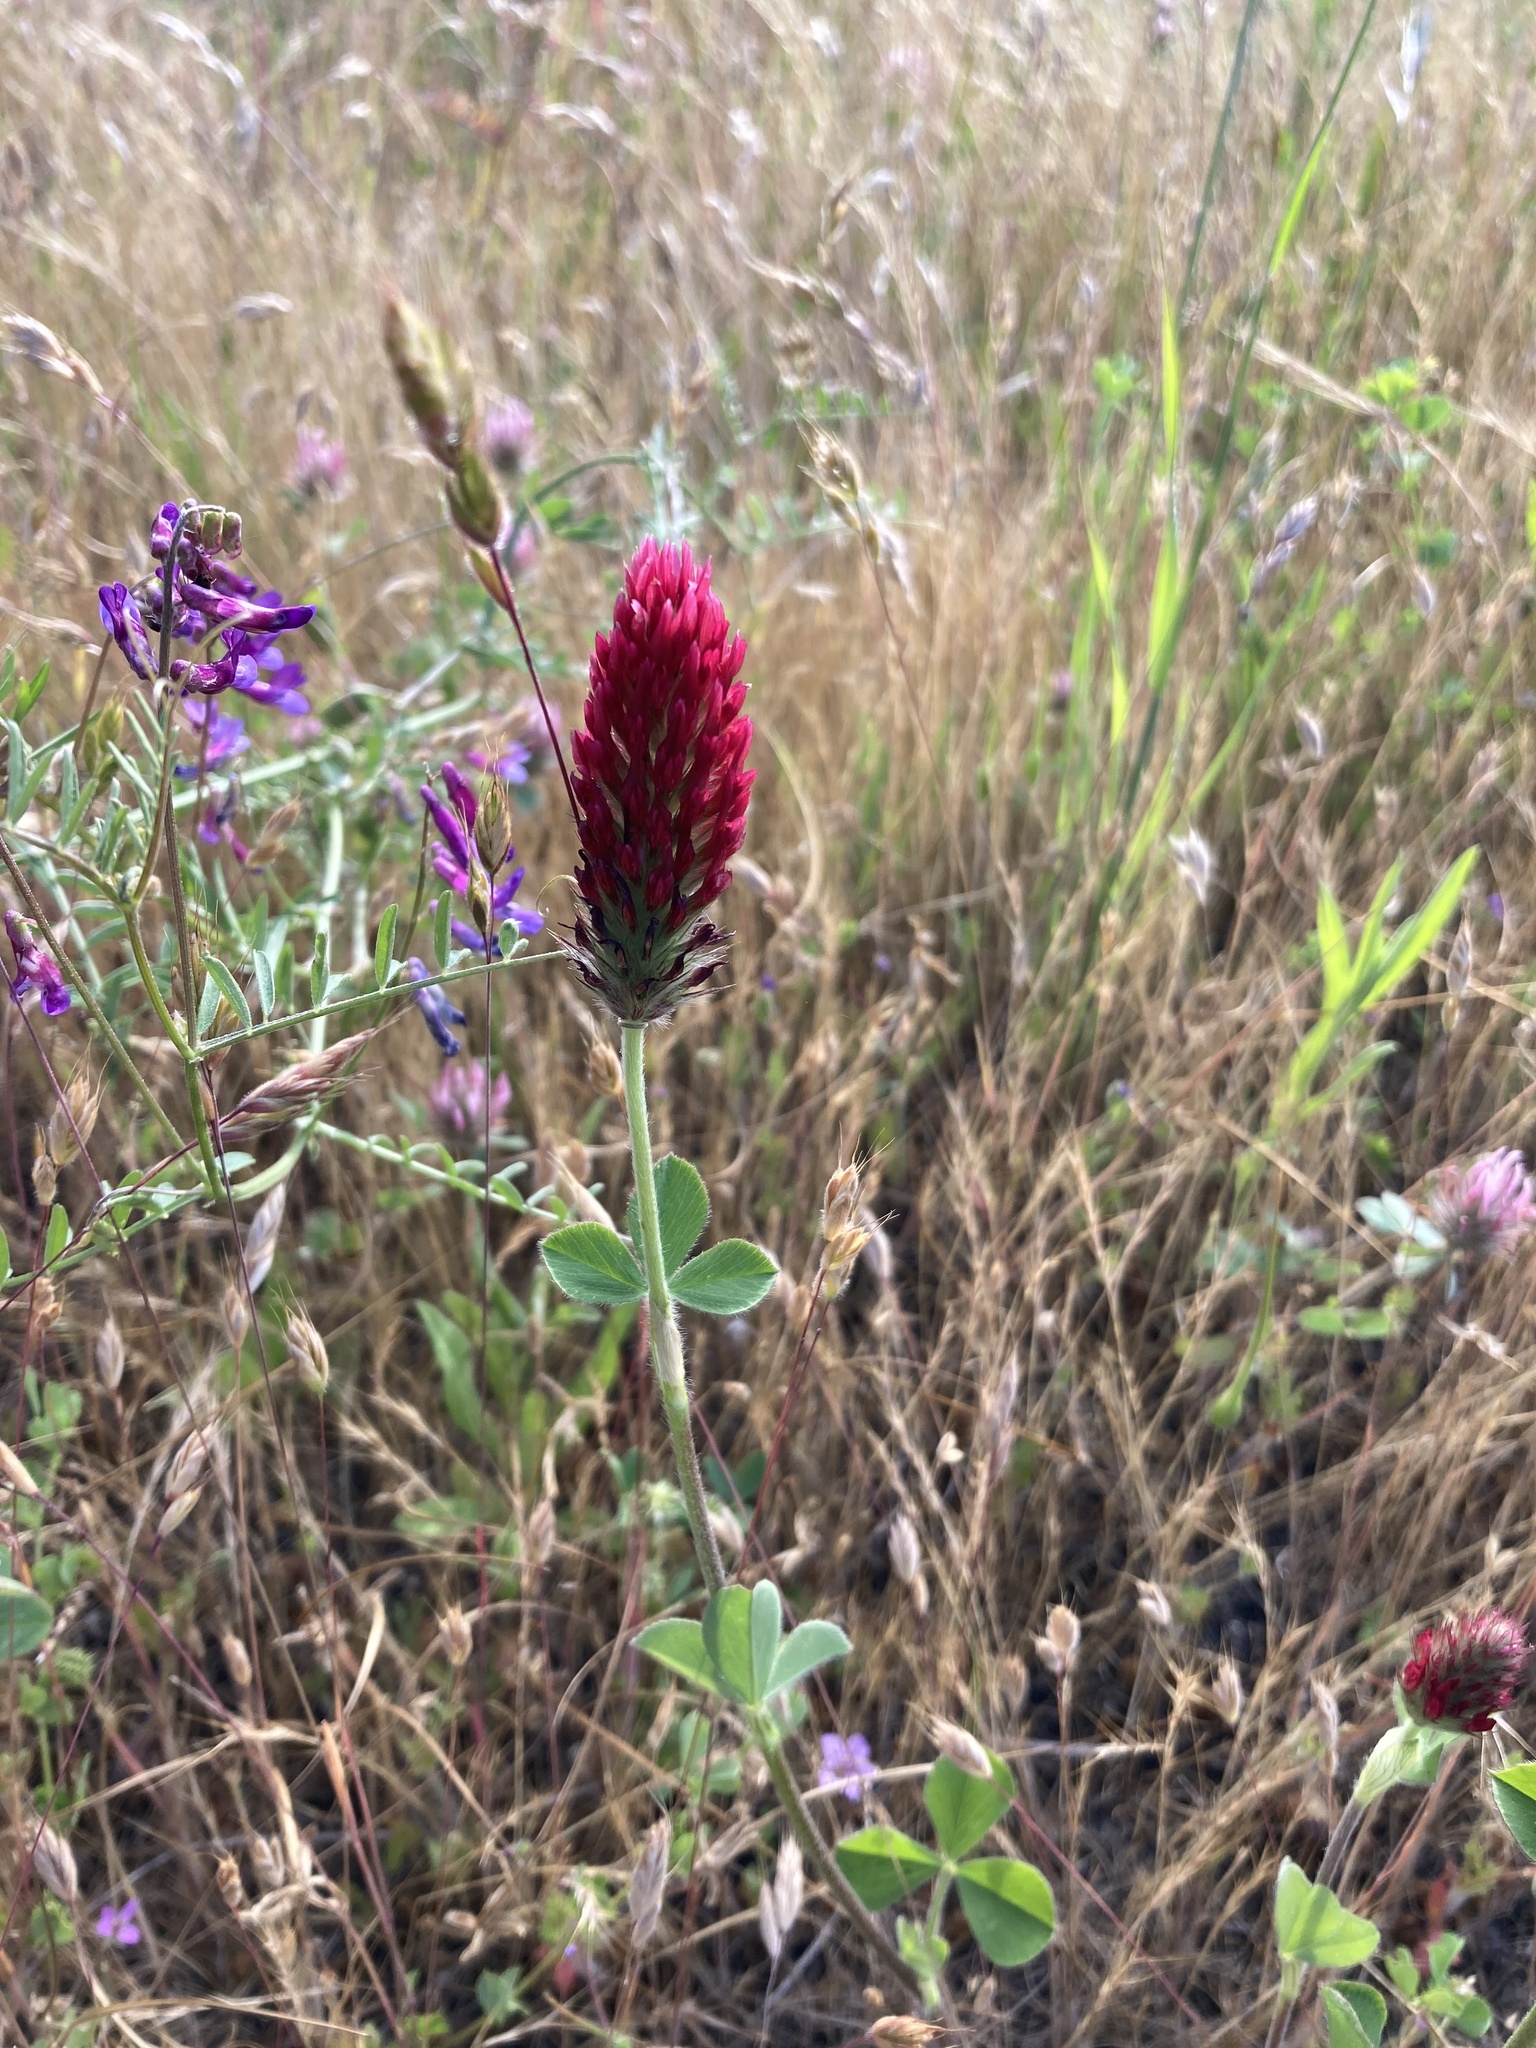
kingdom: Plantae
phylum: Tracheophyta
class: Magnoliopsida
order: Fabales
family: Fabaceae
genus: Trifolium
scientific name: Trifolium incarnatum
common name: Crimson clover
